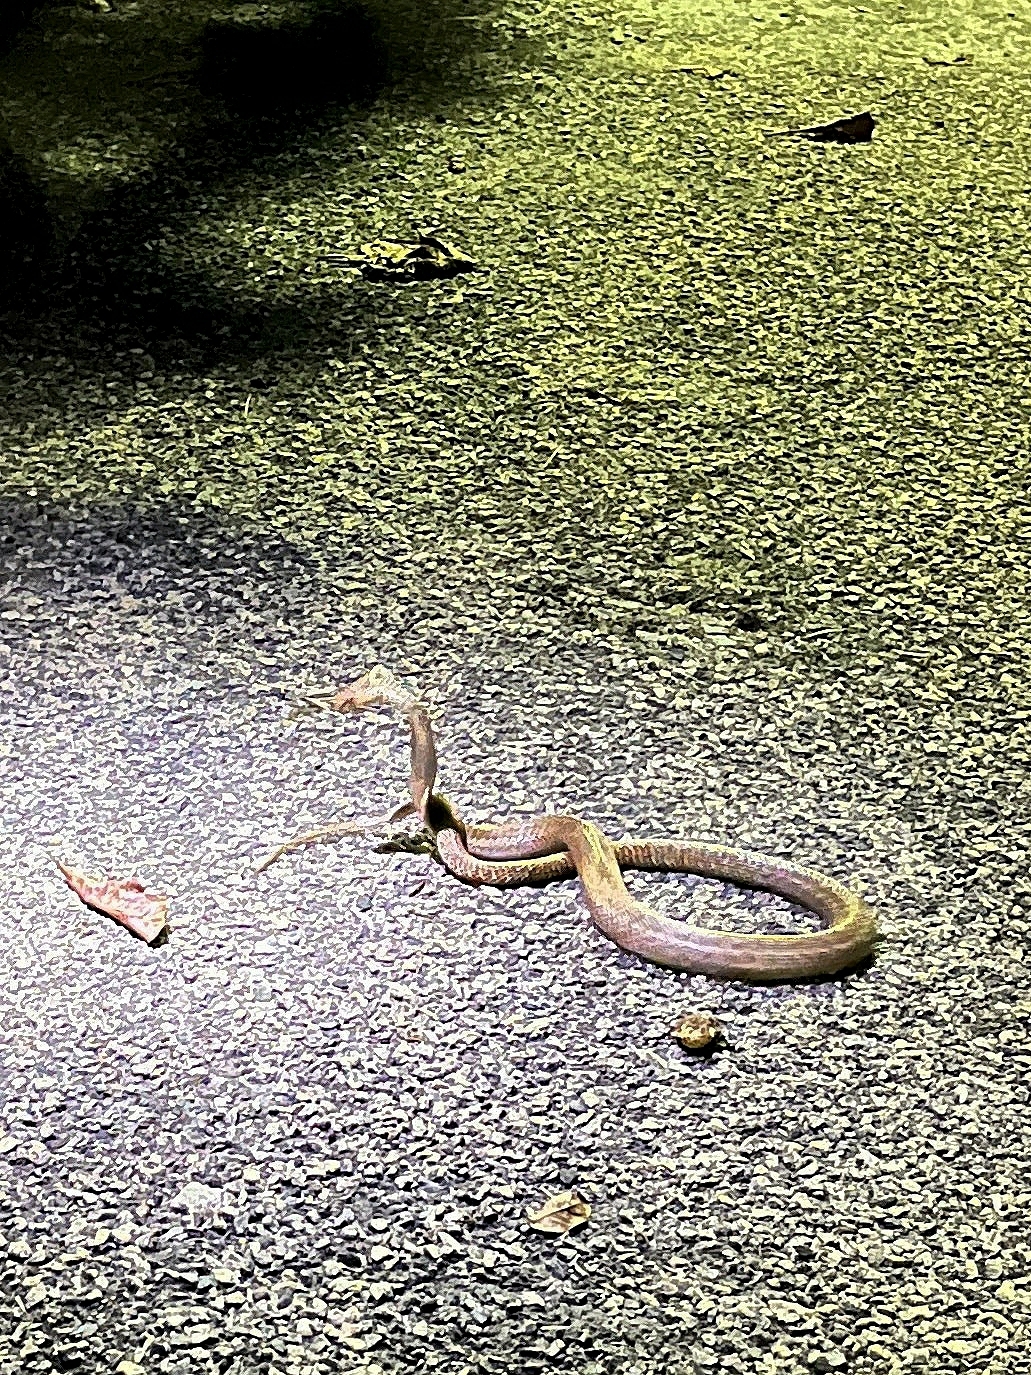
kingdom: Animalia
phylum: Chordata
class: Squamata
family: Elapidae
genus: Naja
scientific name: Naja naja
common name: Indian cobra
